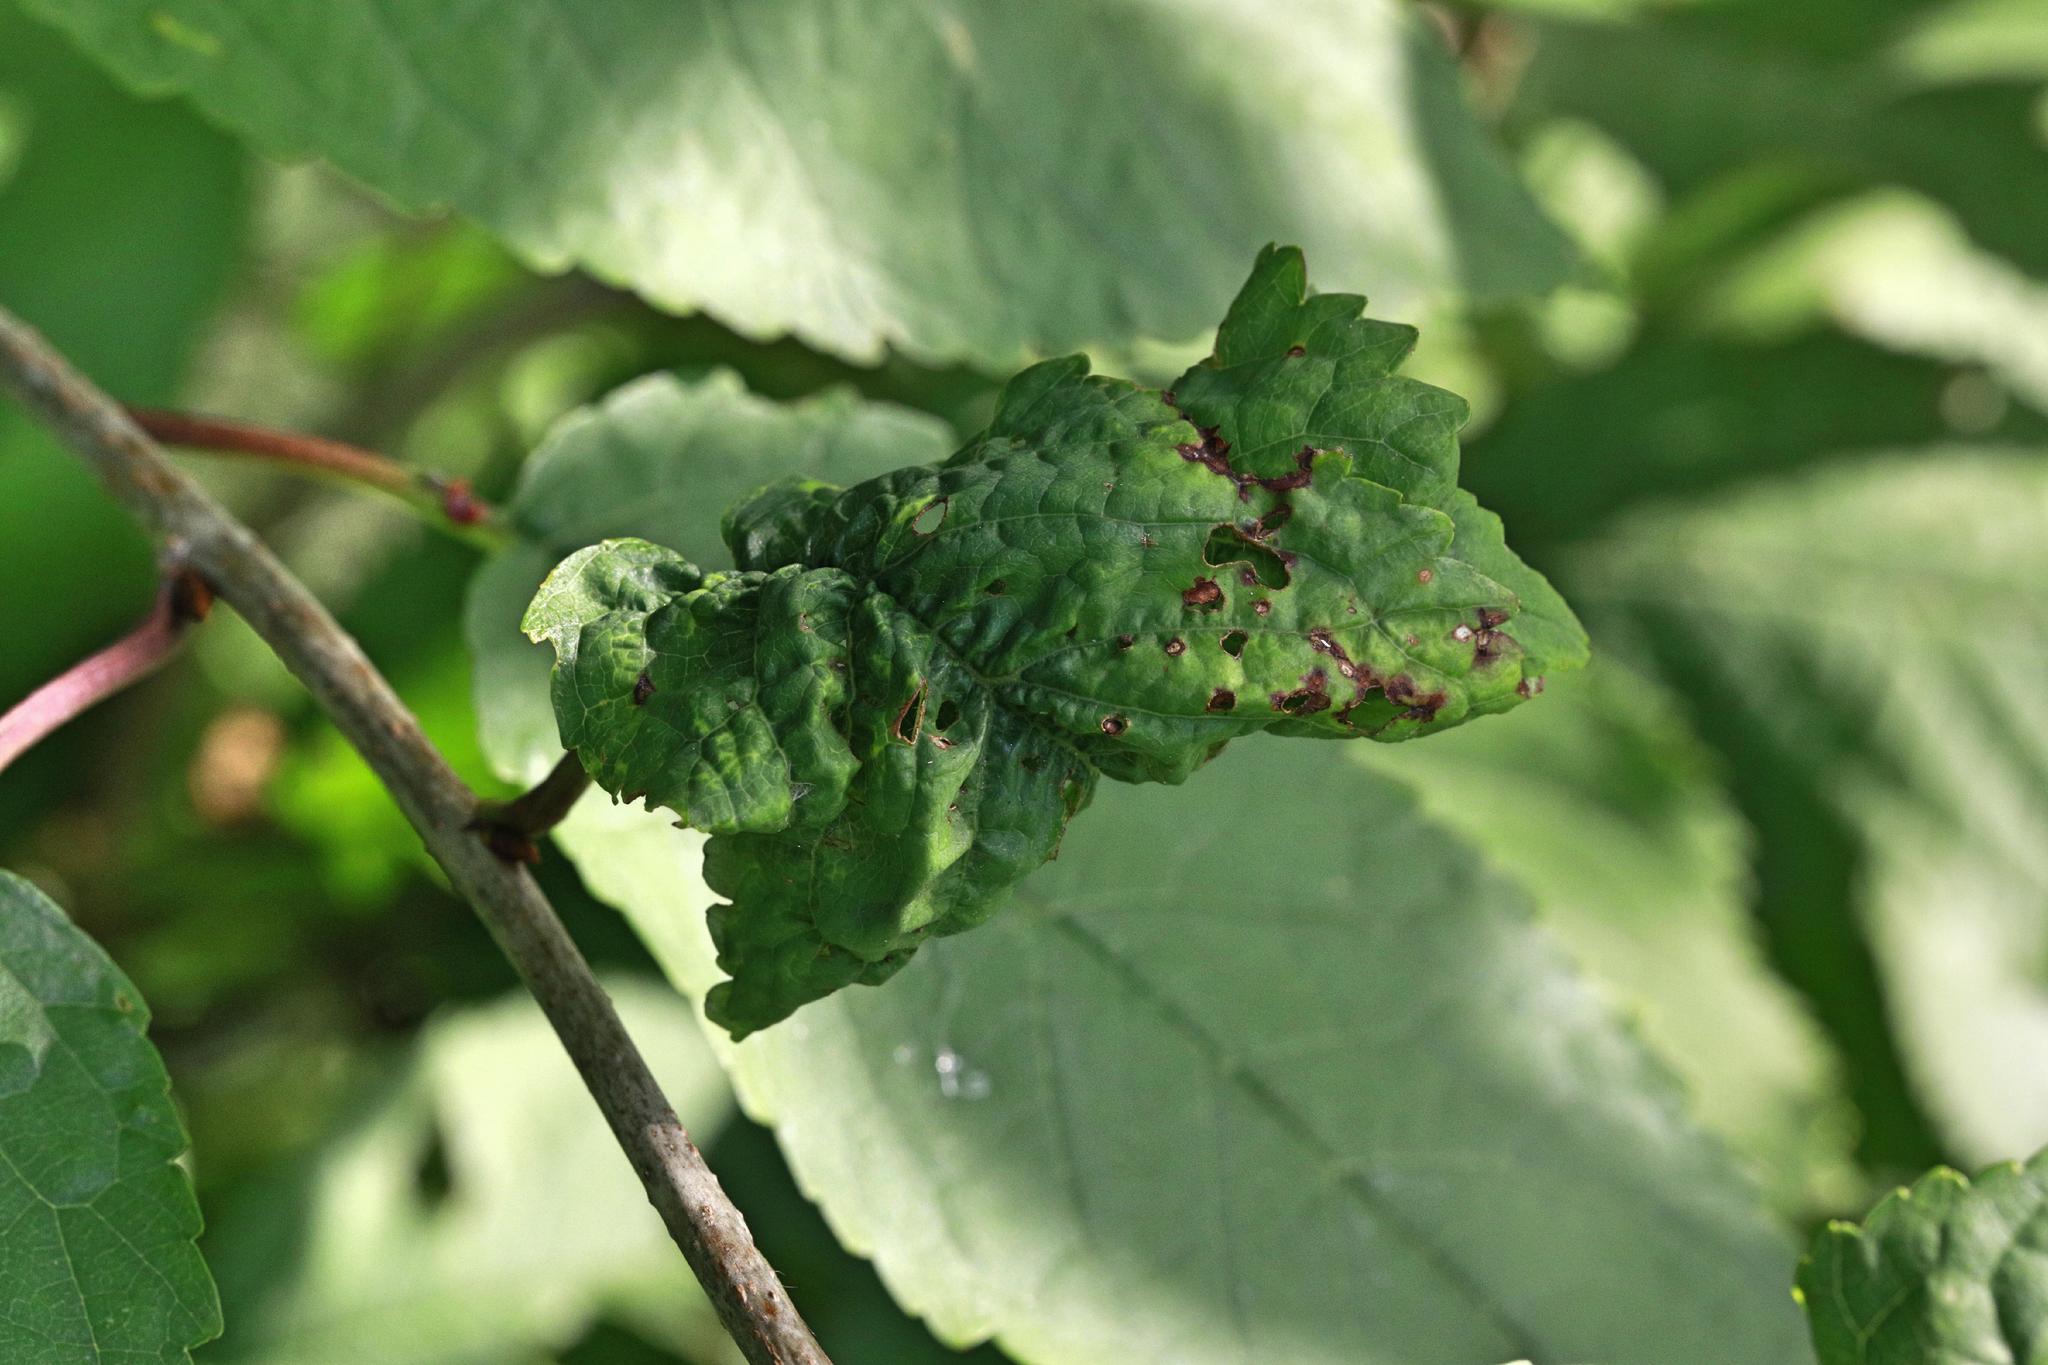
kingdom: Animalia
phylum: Arthropoda
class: Insecta
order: Hemiptera
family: Aphididae
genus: Myzus
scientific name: Myzus cerasi
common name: Black cherry aphid
